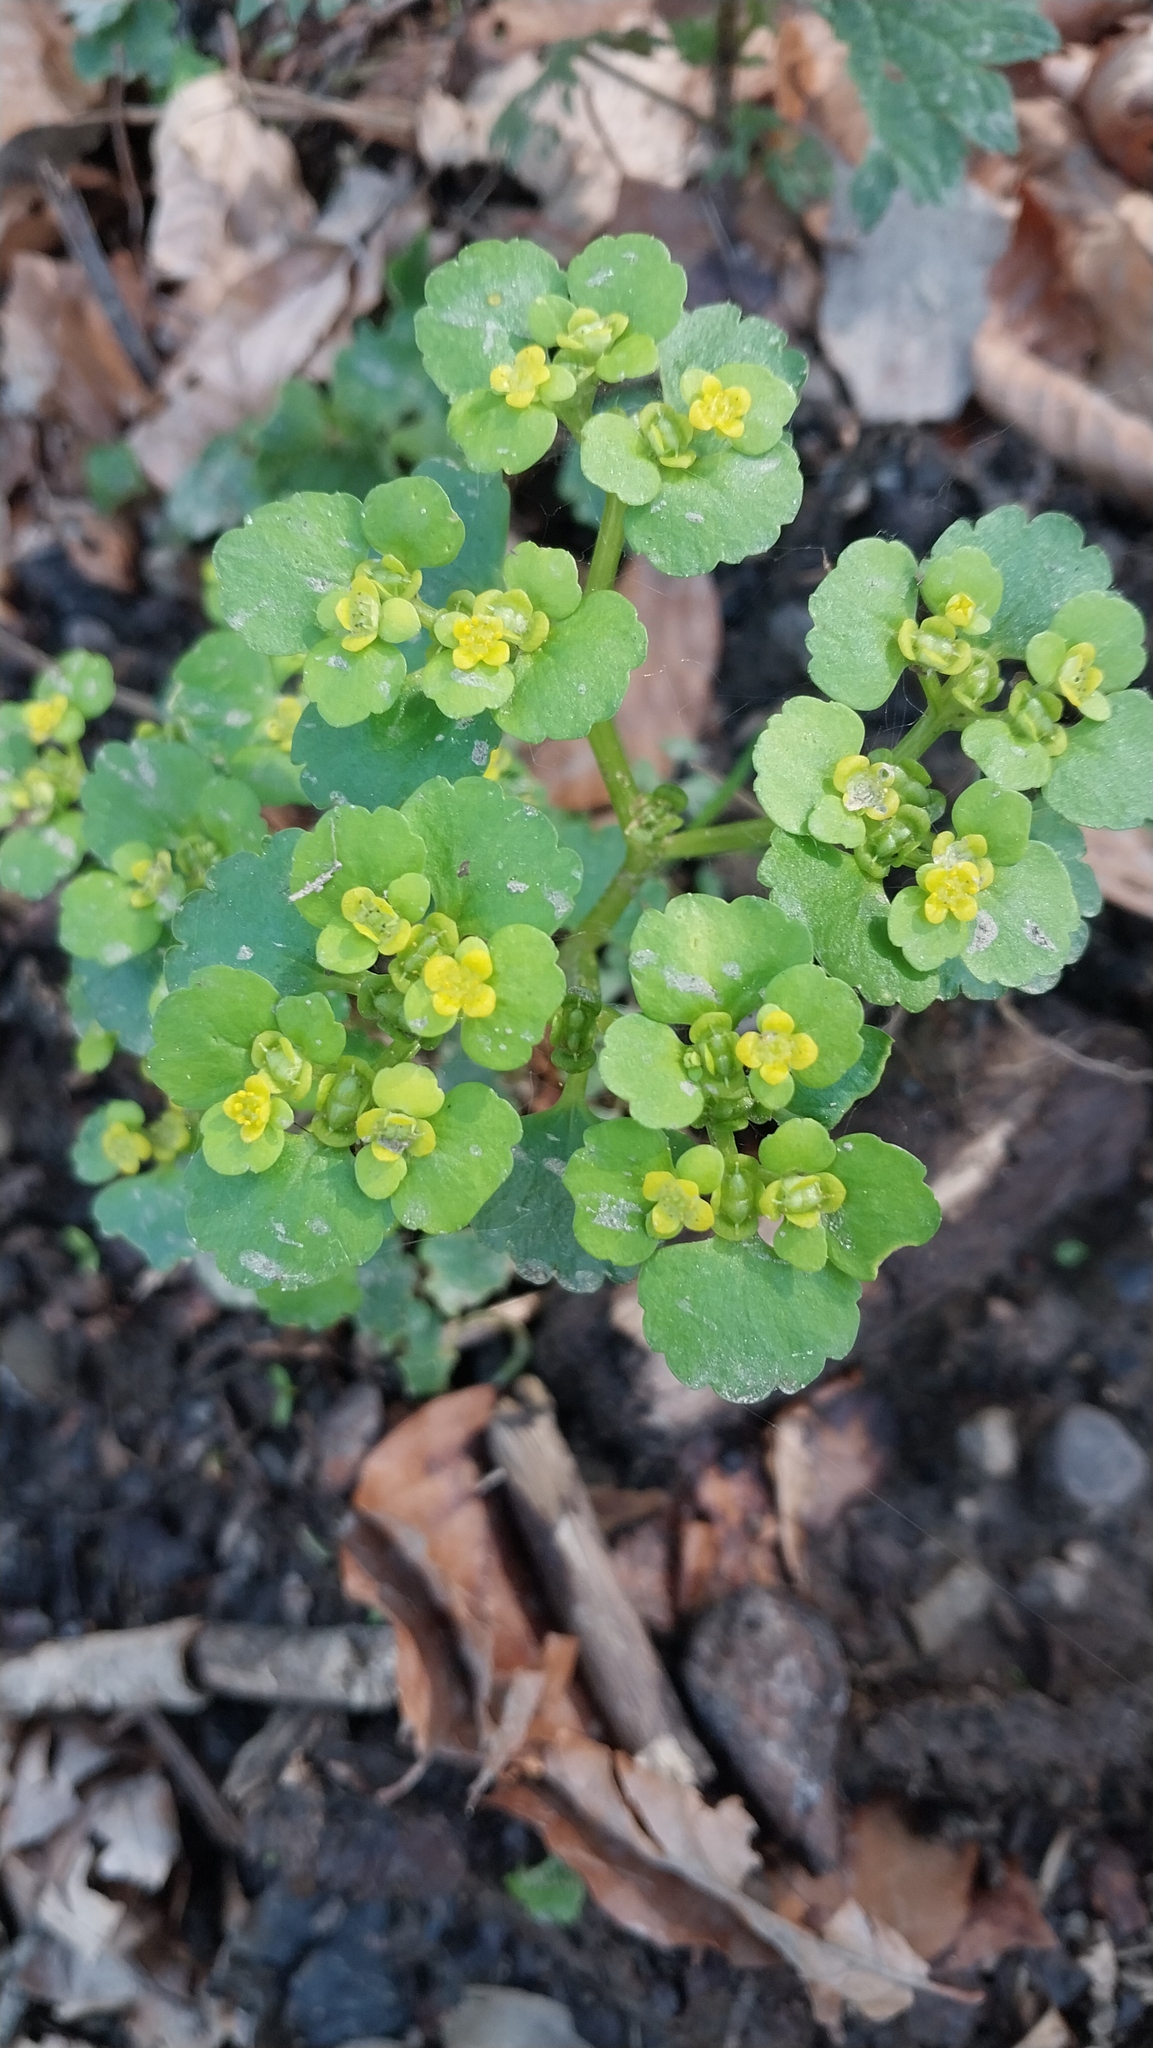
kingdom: Plantae
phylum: Tracheophyta
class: Magnoliopsida
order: Saxifragales
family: Saxifragaceae
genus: Chrysosplenium
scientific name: Chrysosplenium alternifolium
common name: Alternate-leaved golden-saxifrage
